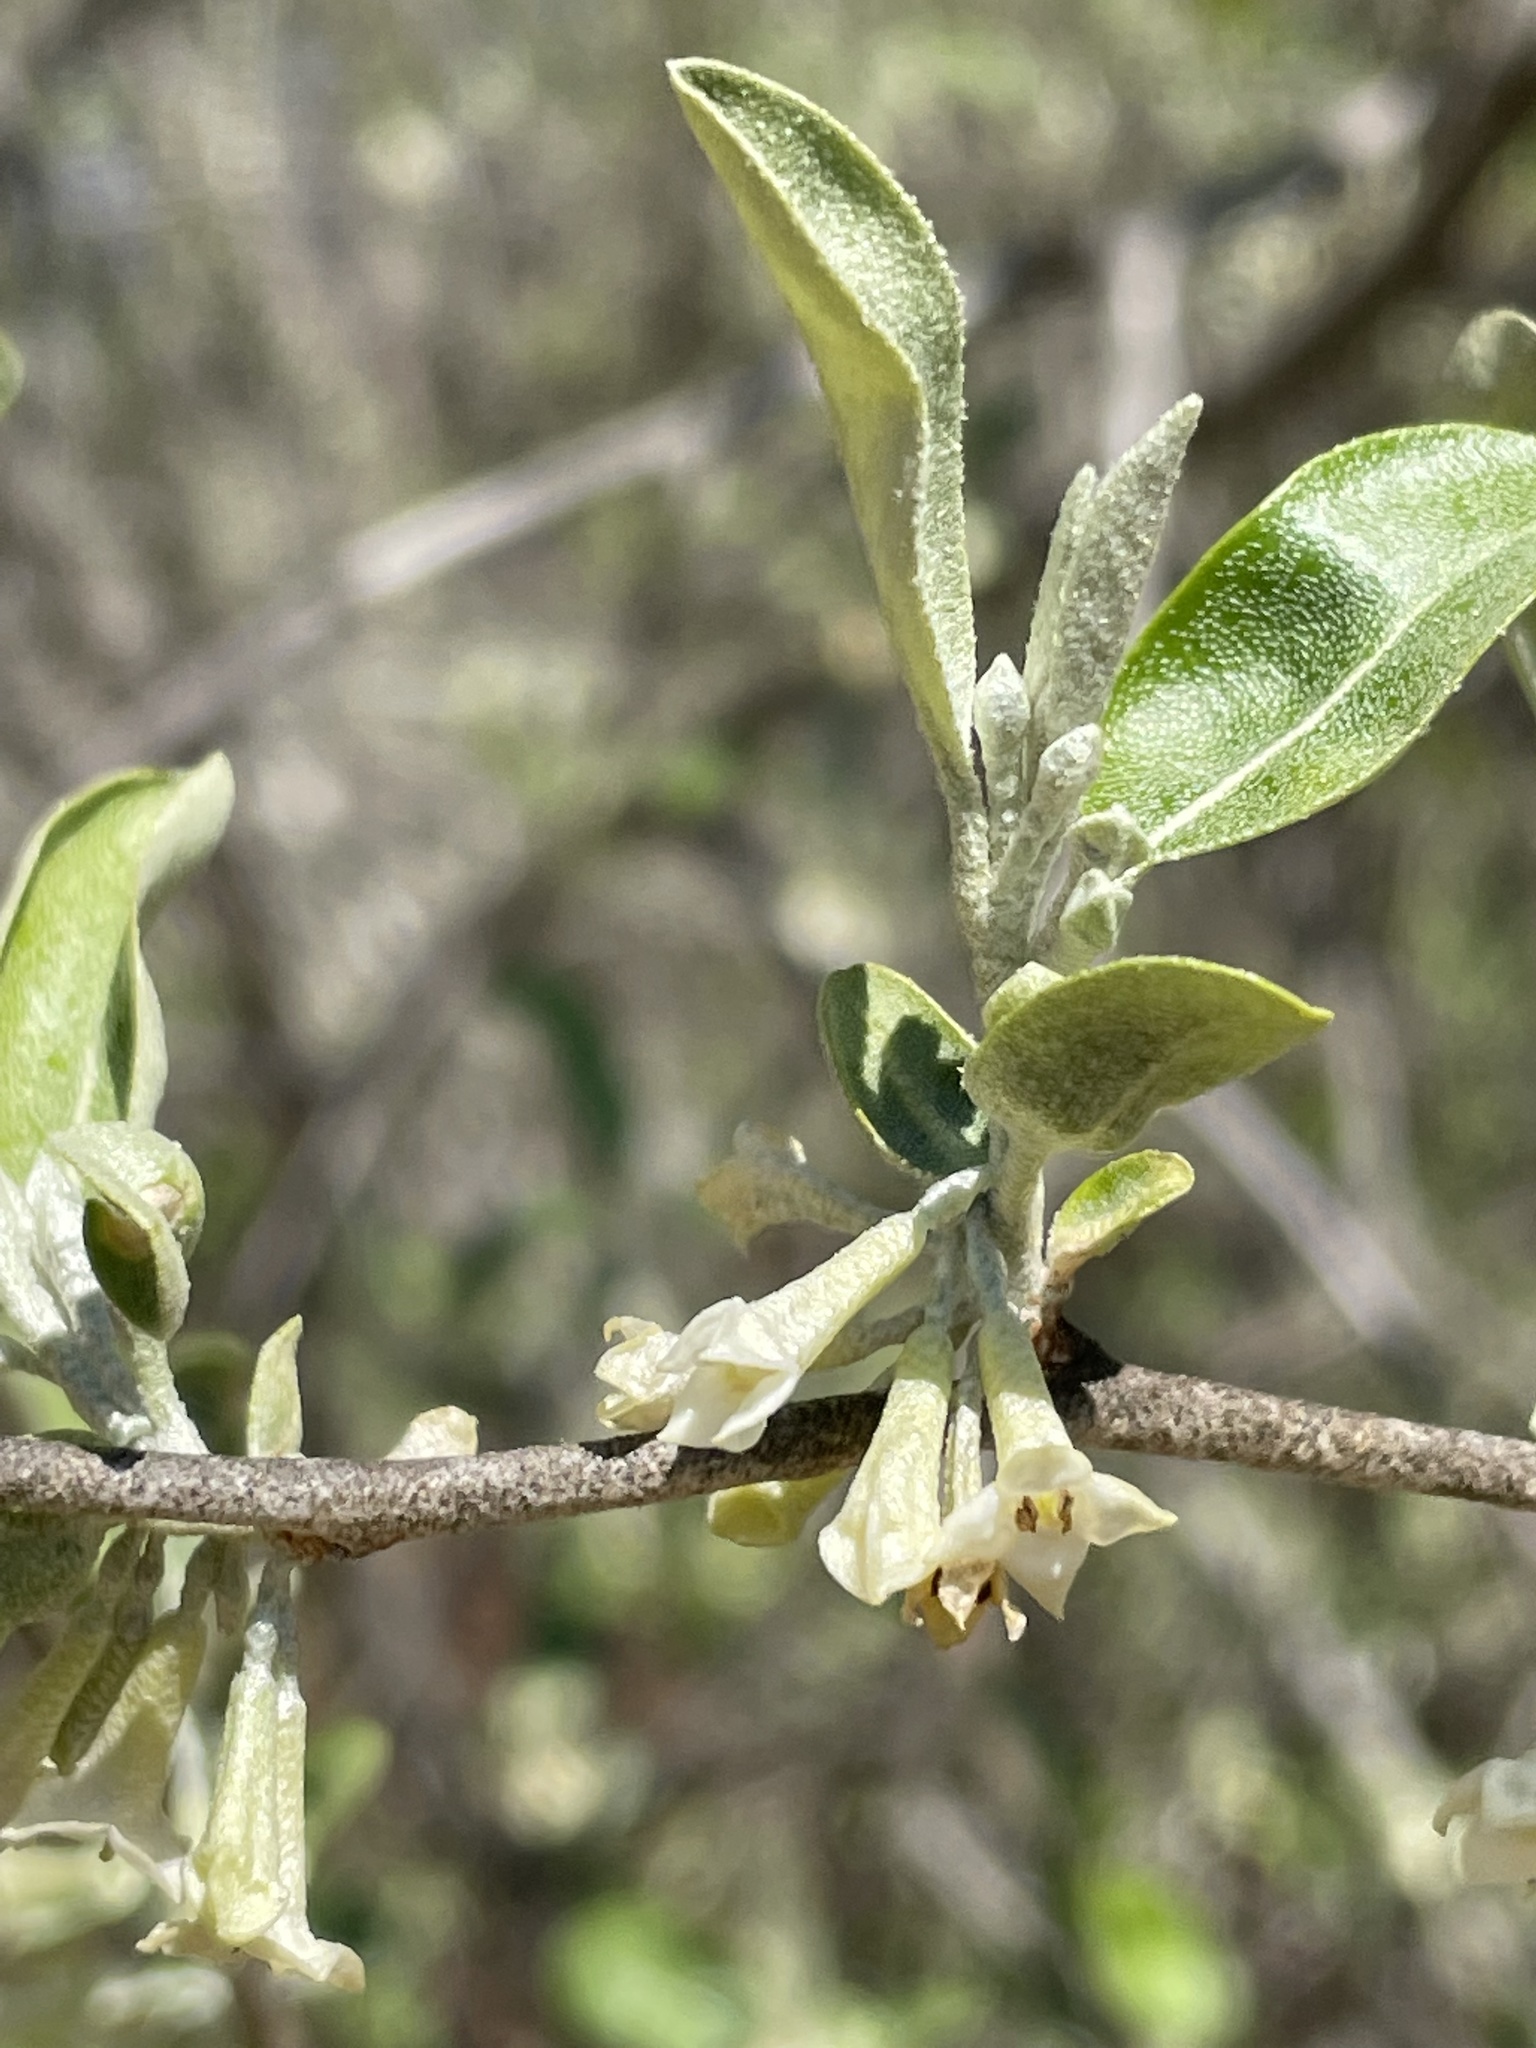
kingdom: Plantae
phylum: Tracheophyta
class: Magnoliopsida
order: Rosales
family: Elaeagnaceae
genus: Elaeagnus
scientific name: Elaeagnus umbellata
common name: Autumn olive
